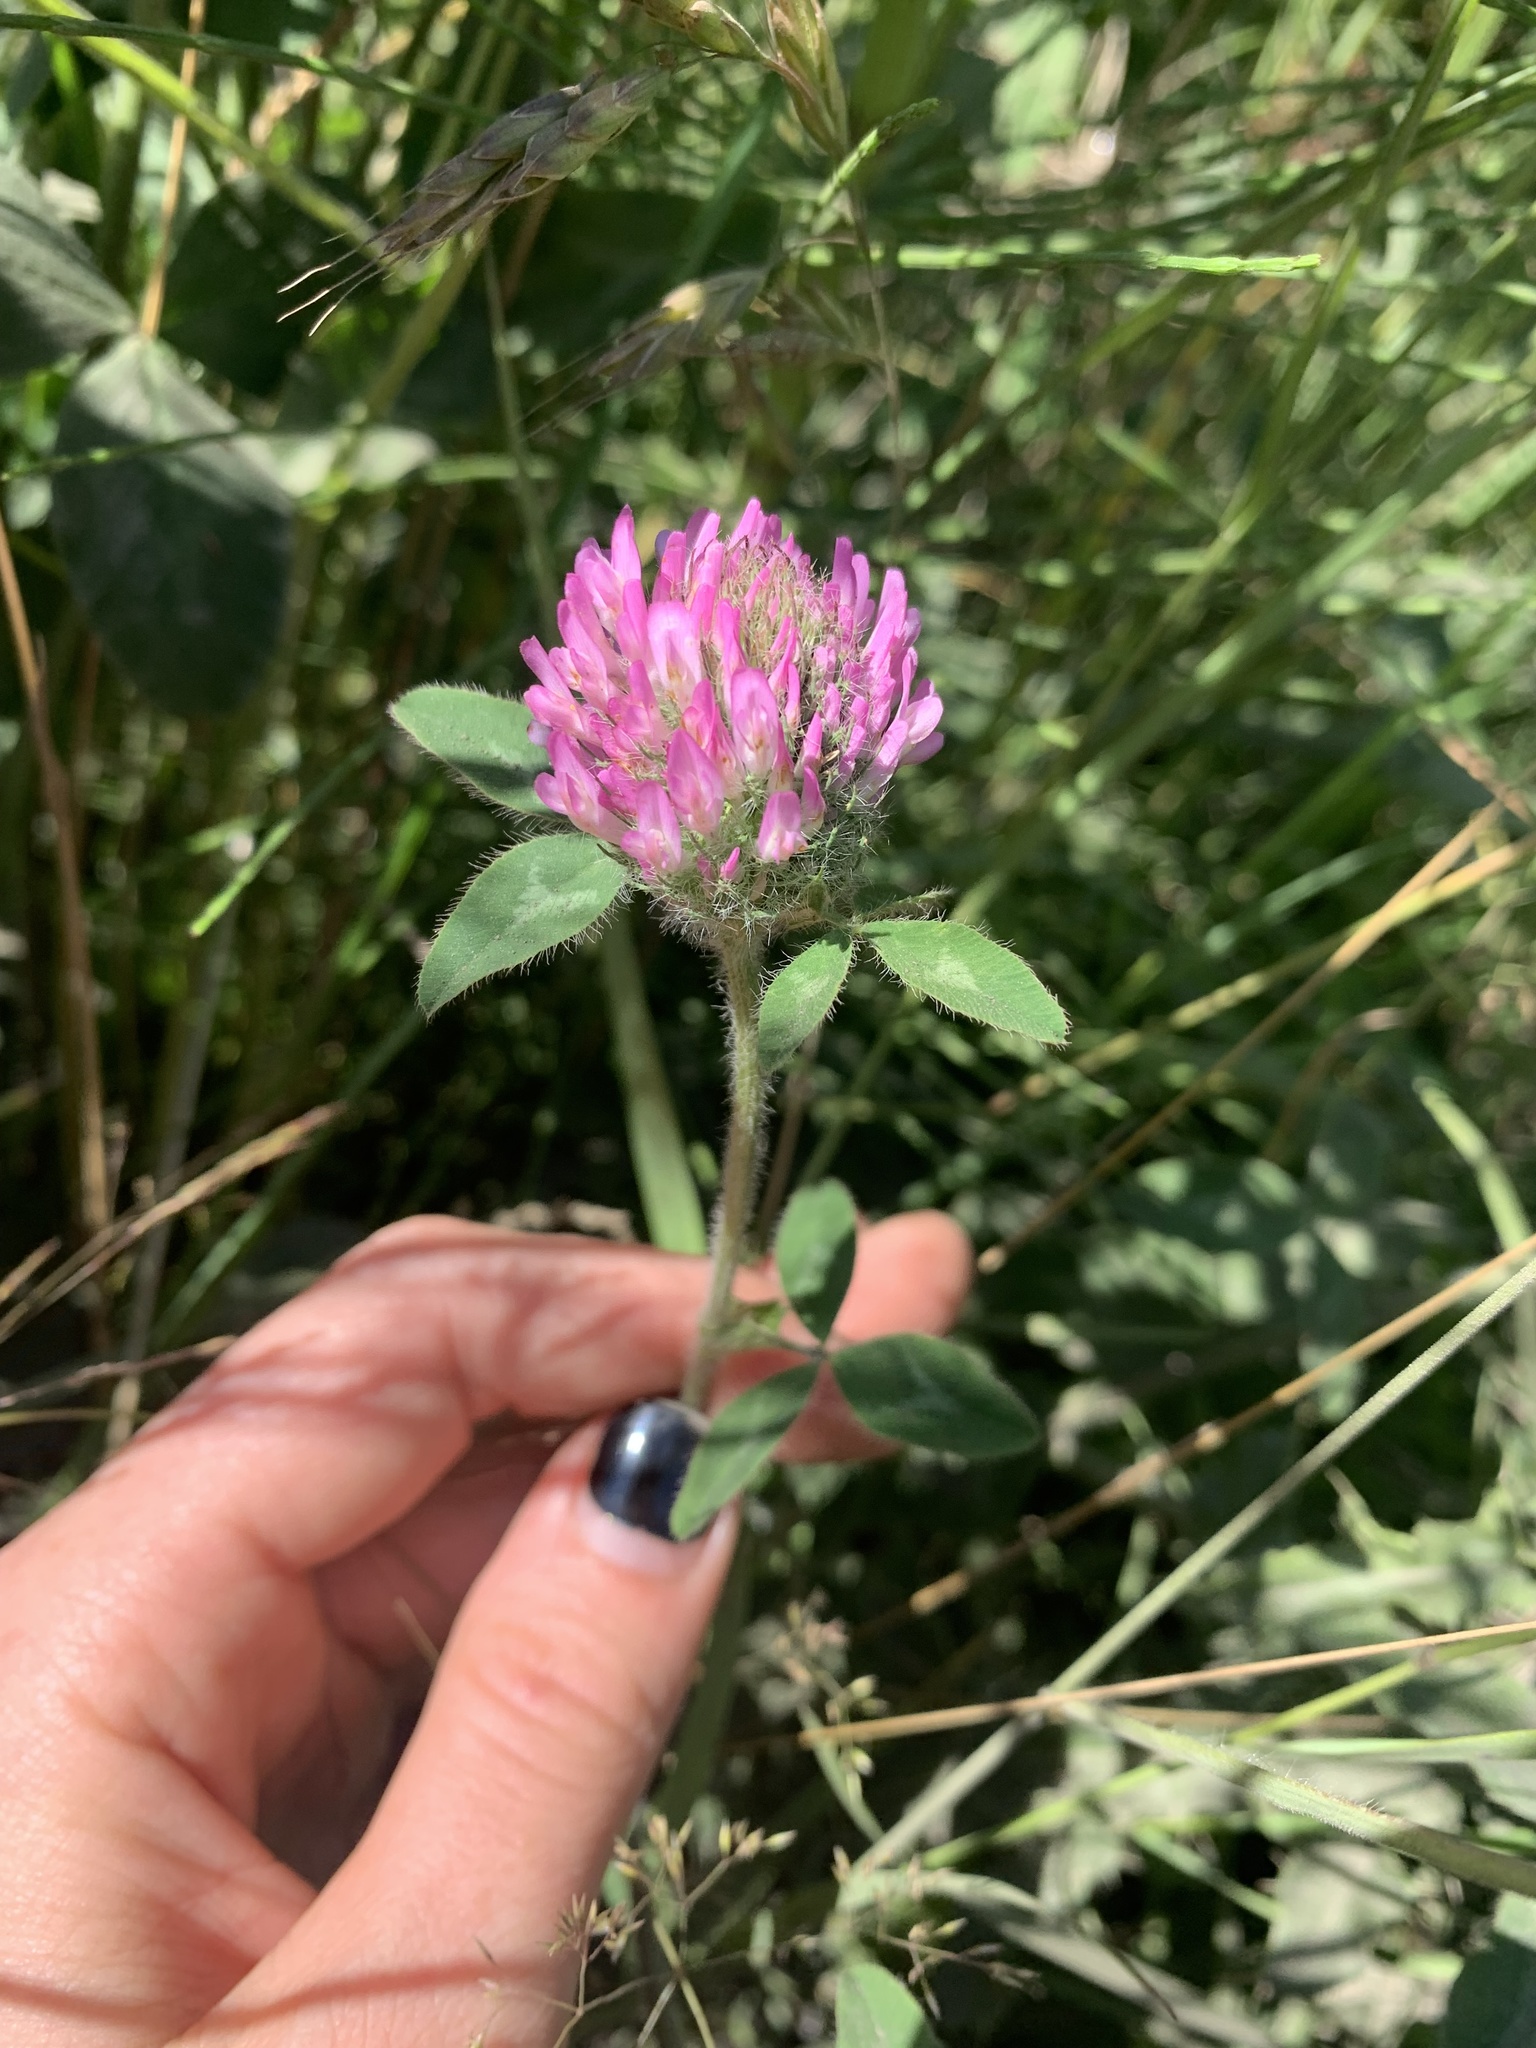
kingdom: Plantae
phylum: Tracheophyta
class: Magnoliopsida
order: Fabales
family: Fabaceae
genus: Trifolium
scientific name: Trifolium pratense
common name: Red clover
